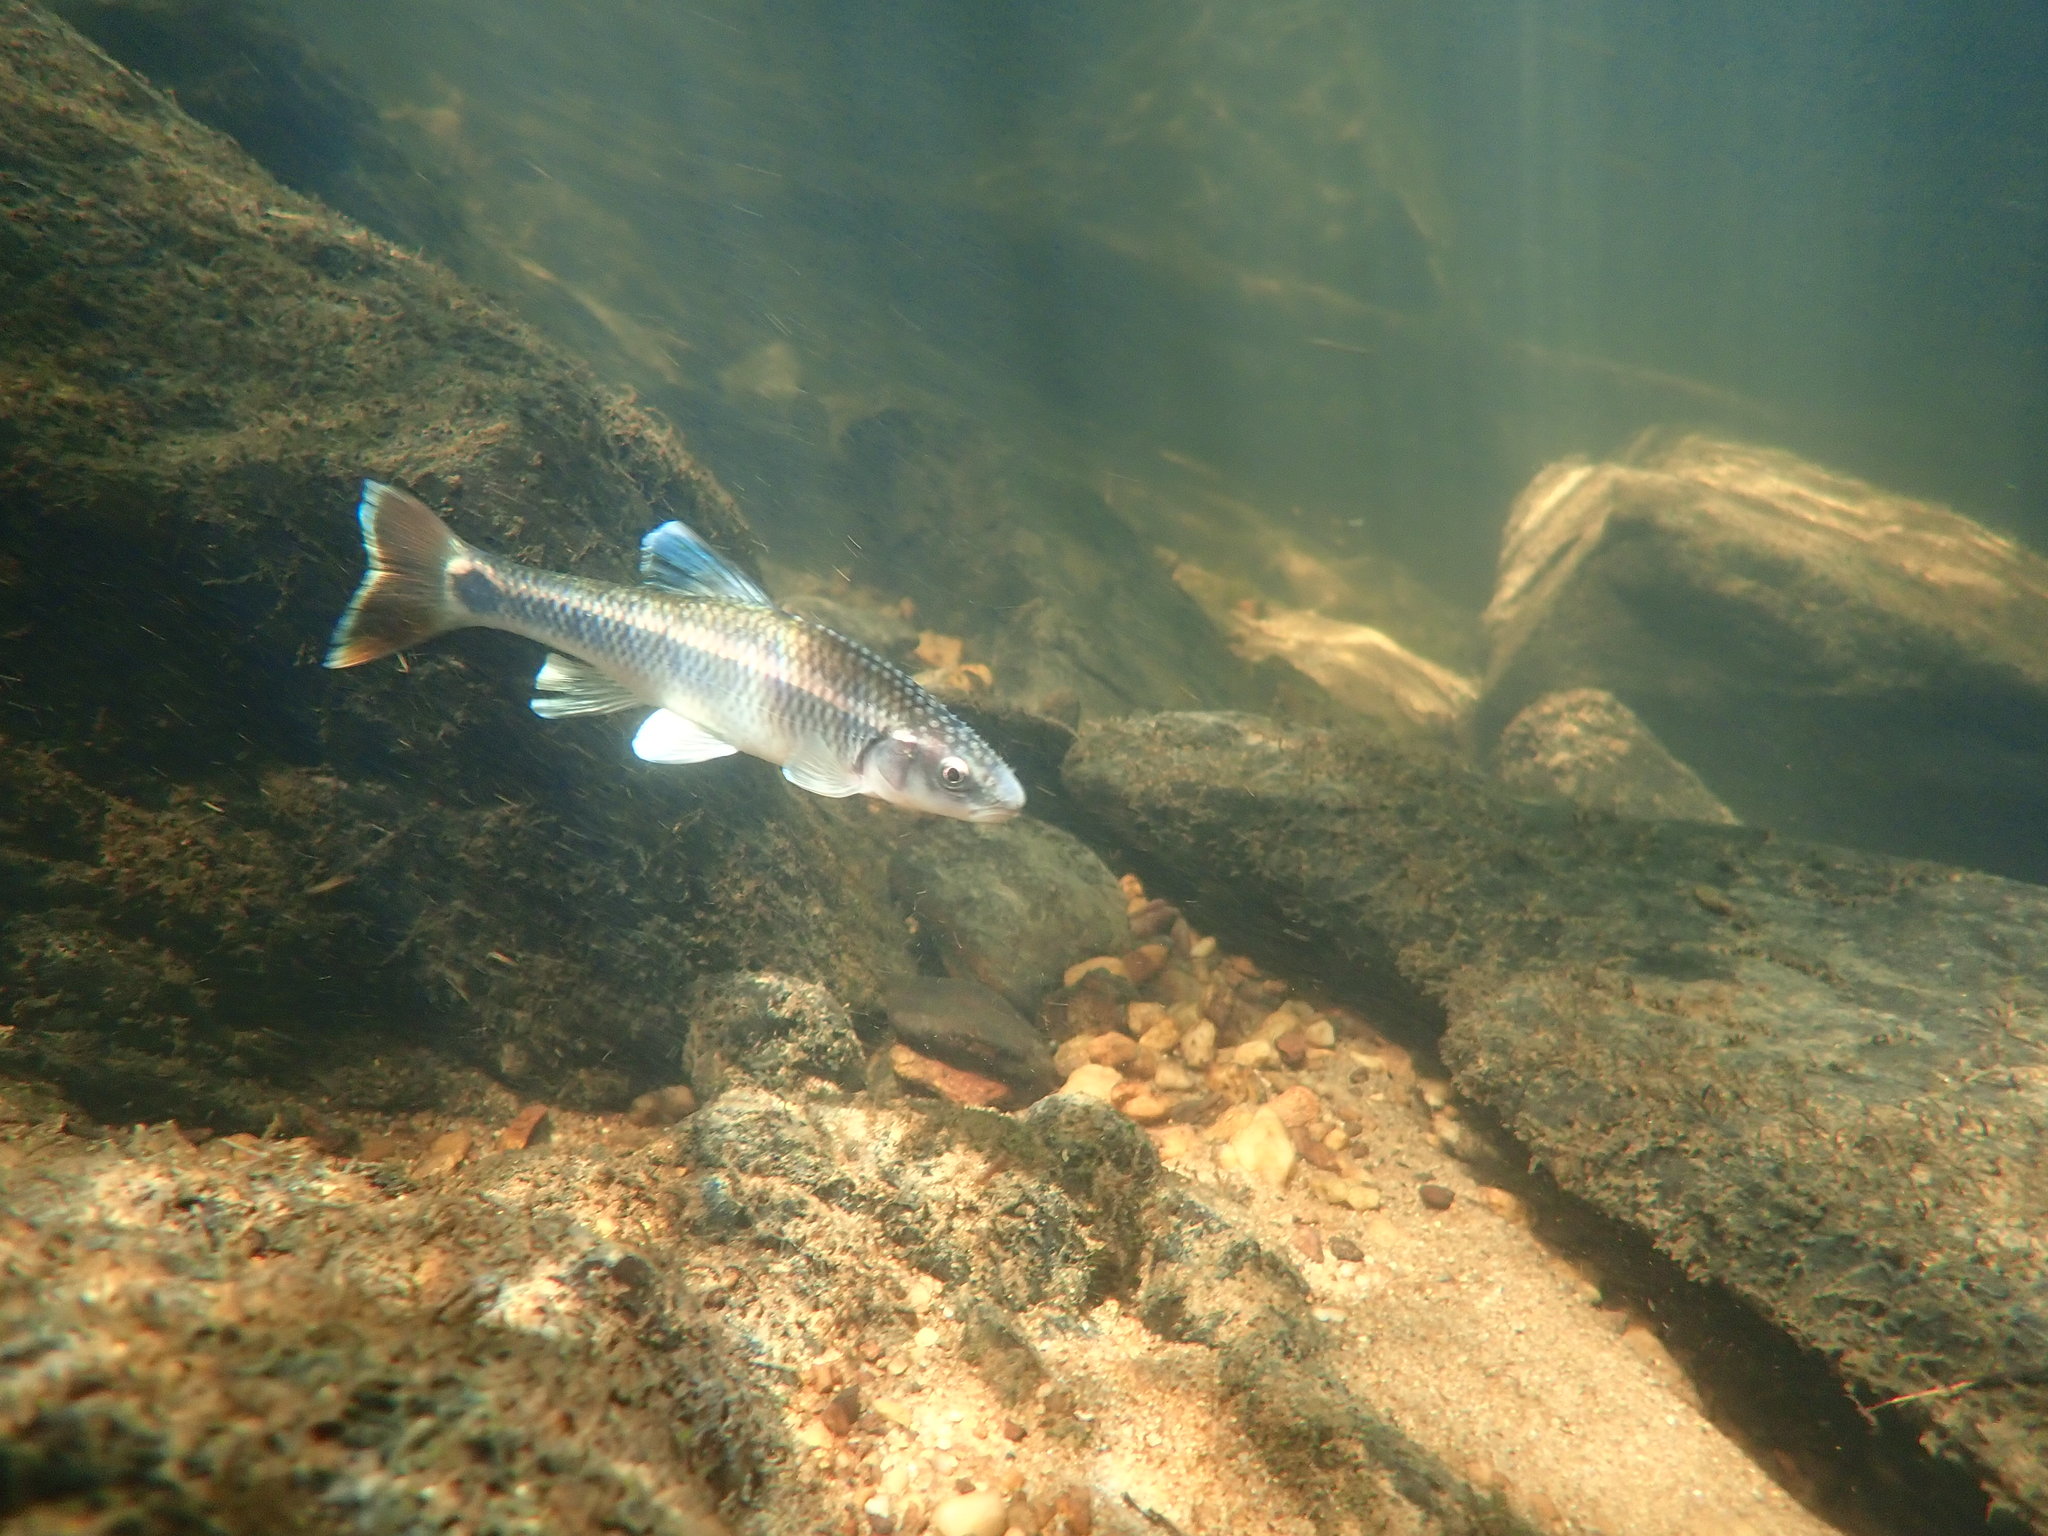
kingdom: Animalia
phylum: Chordata
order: Cypriniformes
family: Cyprinidae
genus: Cyprinella
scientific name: Cyprinella callistia
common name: Alabama shiner
